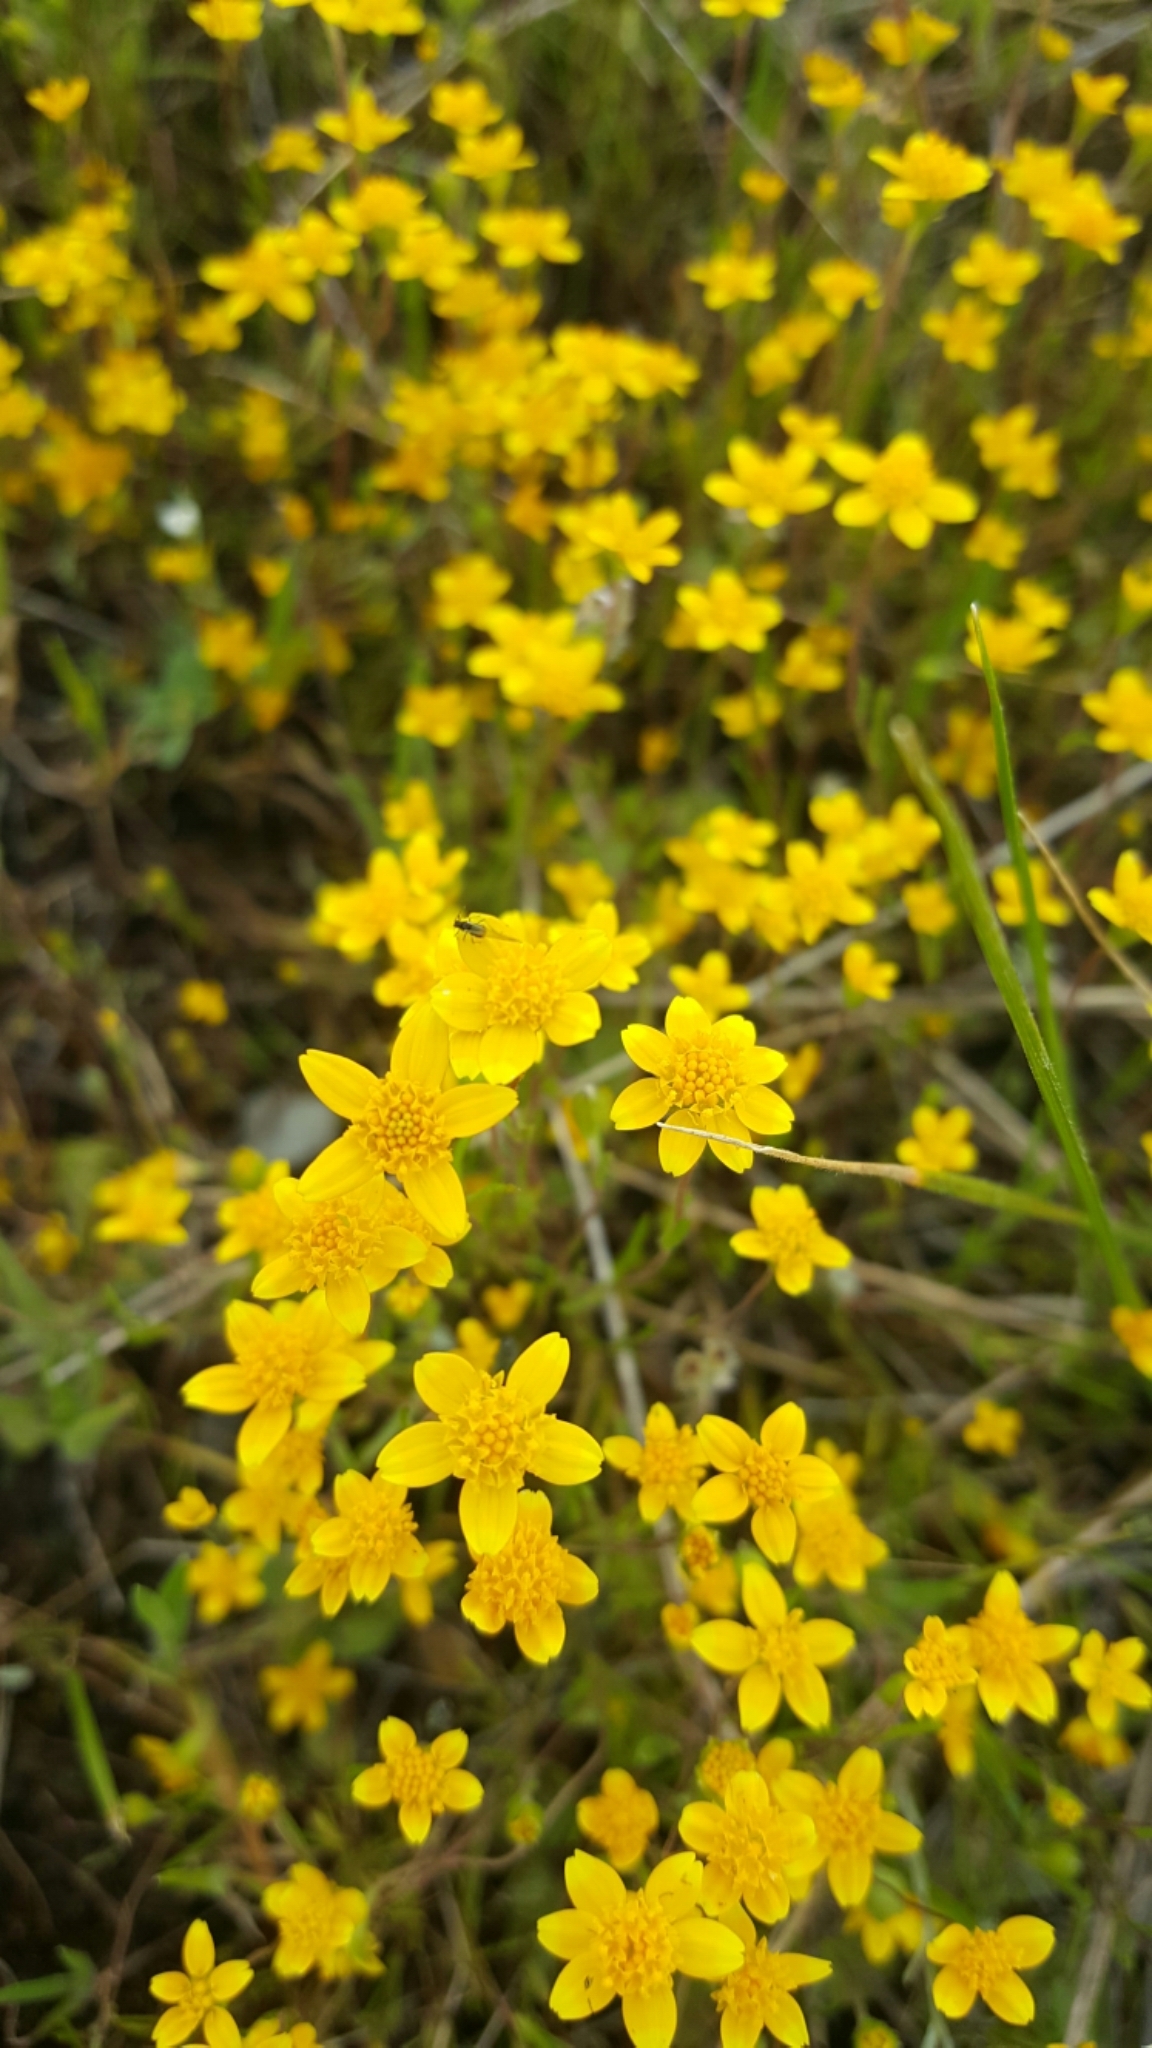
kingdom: Plantae
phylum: Tracheophyta
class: Magnoliopsida
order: Asterales
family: Asteraceae
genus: Lasthenia
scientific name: Lasthenia californica
